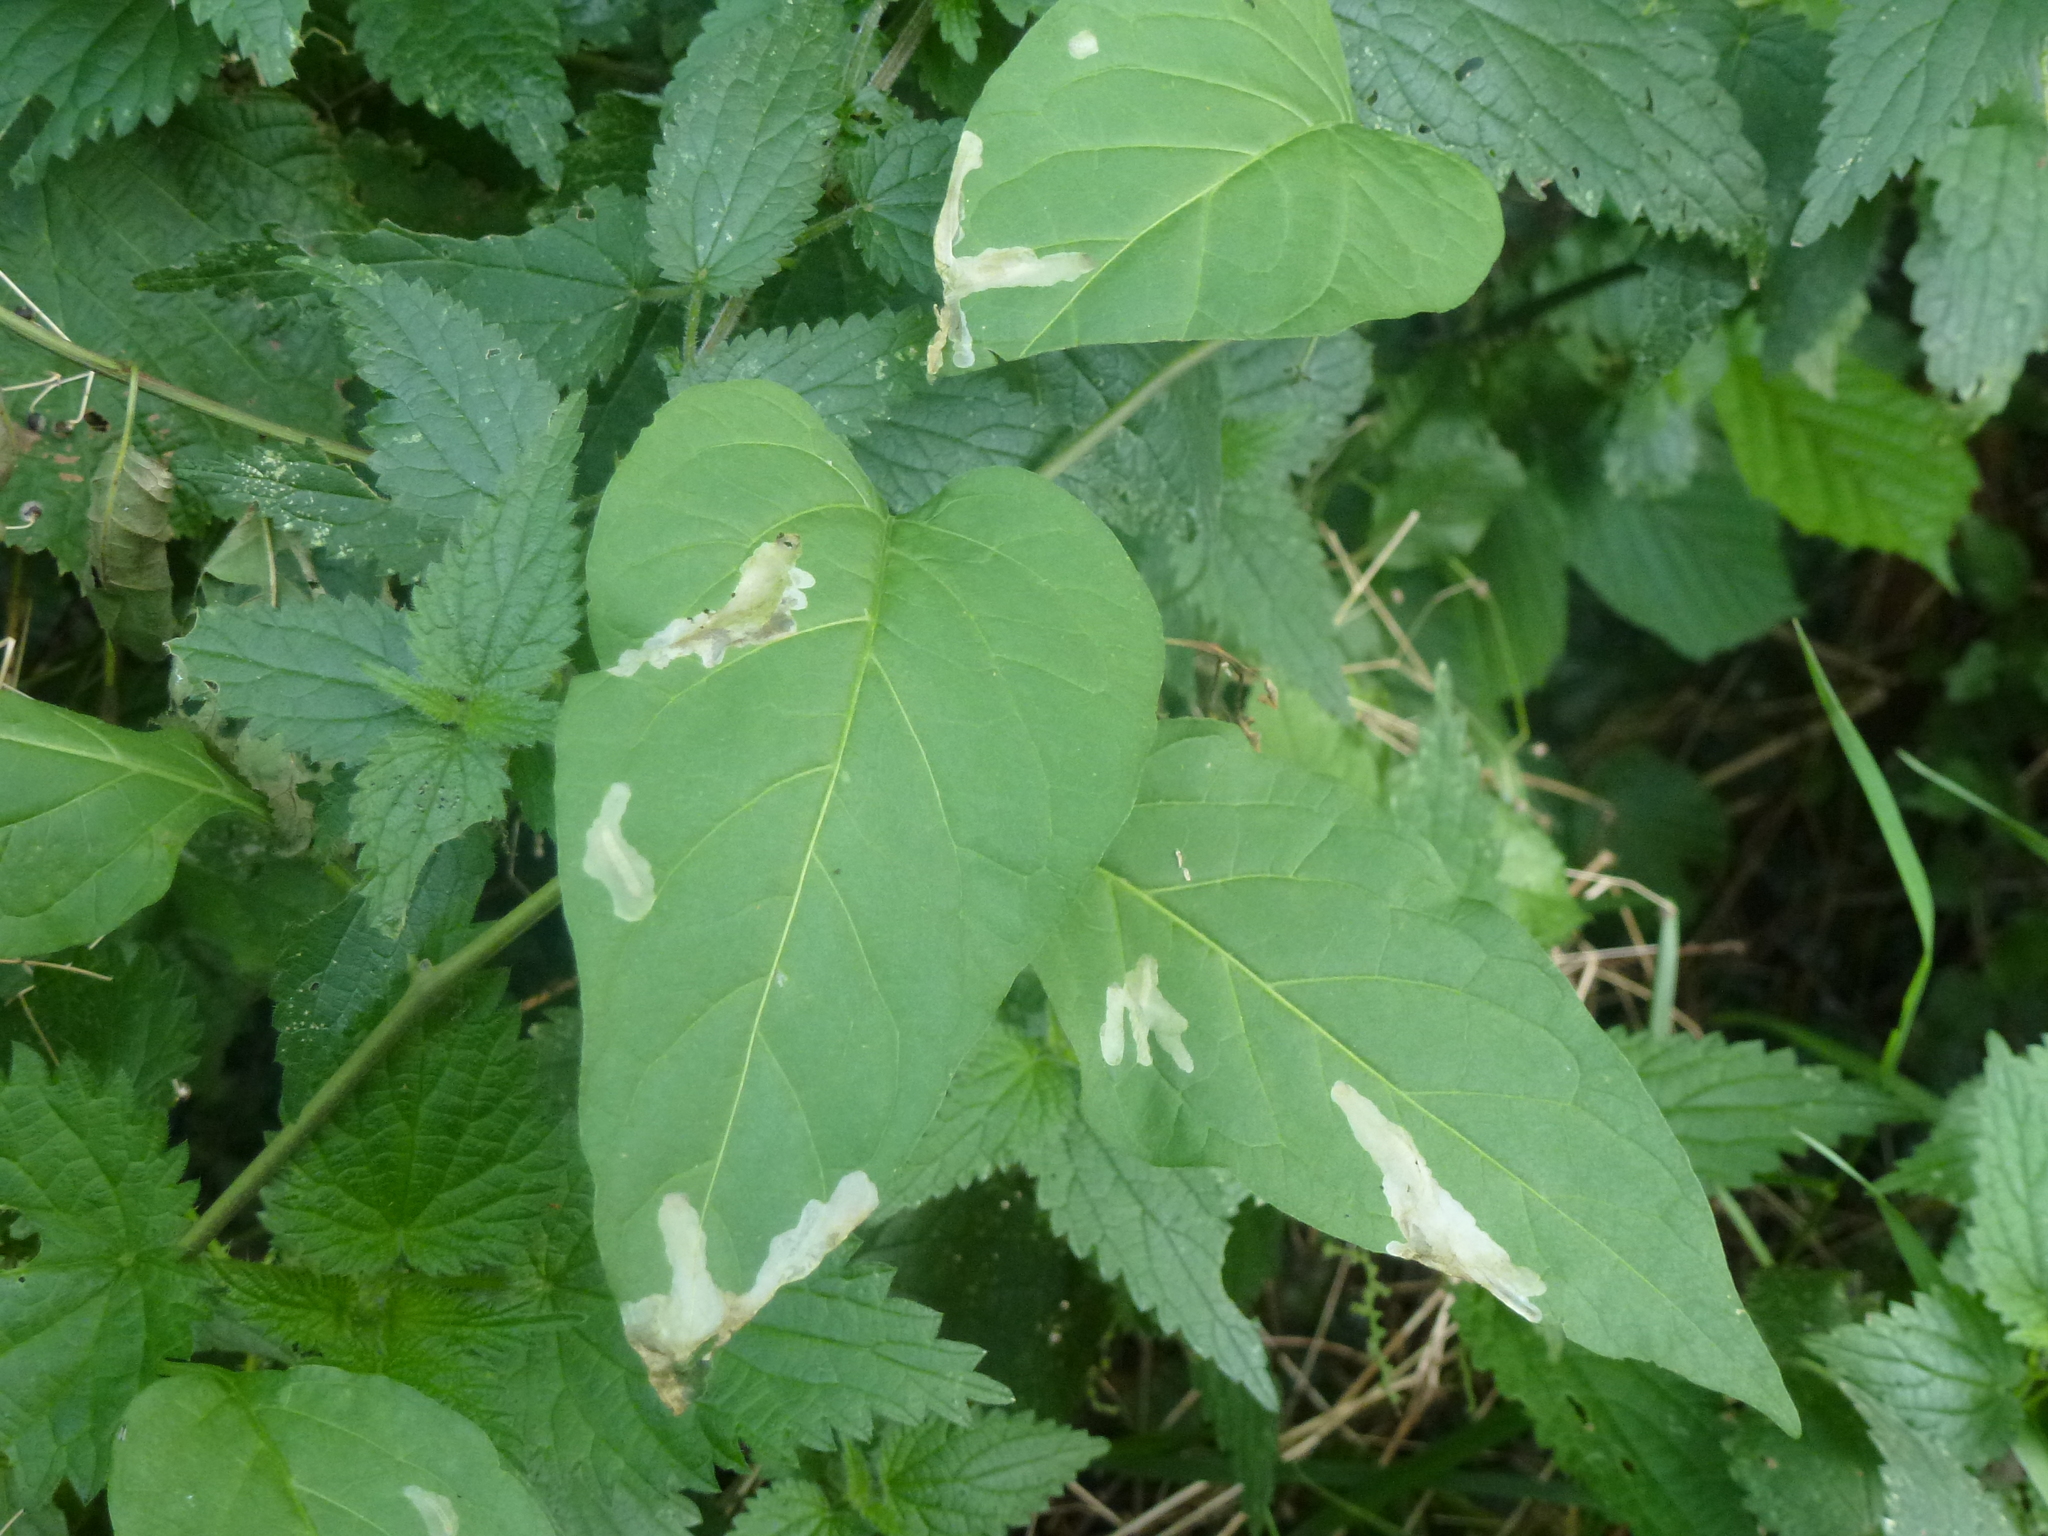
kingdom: Animalia
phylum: Arthropoda
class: Insecta
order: Lepidoptera
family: Bedelliidae
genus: Bedellia
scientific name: Bedellia somnulentella
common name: Morning-glory leafminer moth
